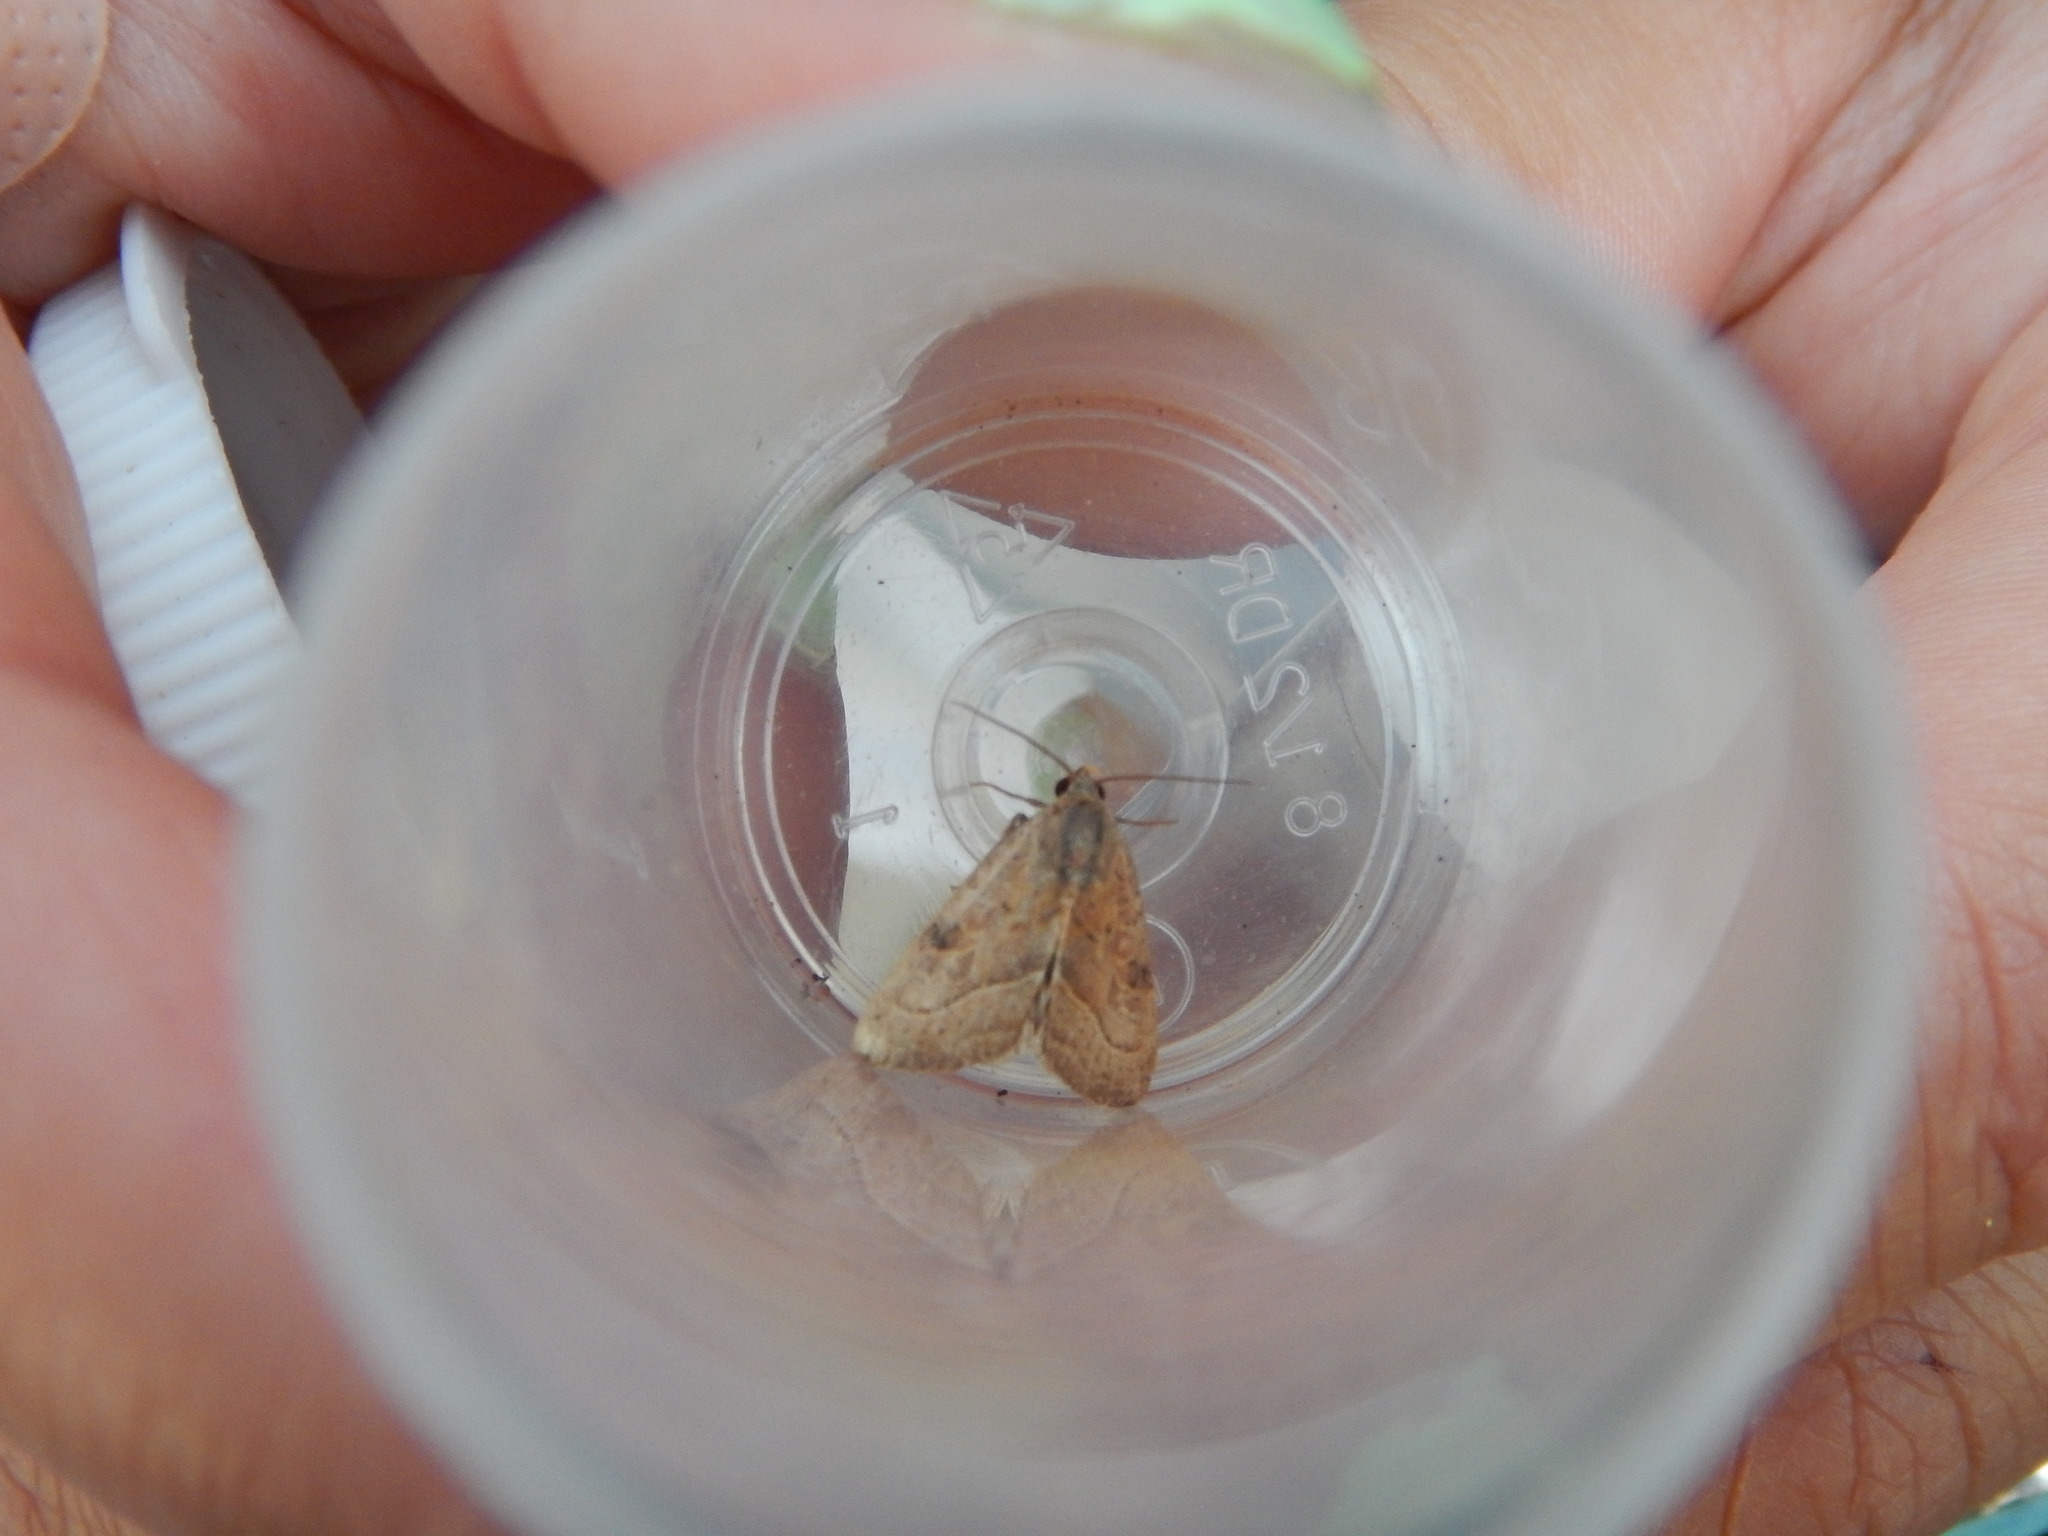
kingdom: Animalia
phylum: Arthropoda
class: Insecta
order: Lepidoptera
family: Noctuidae
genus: Galgula
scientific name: Galgula partita
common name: Wedgeling
